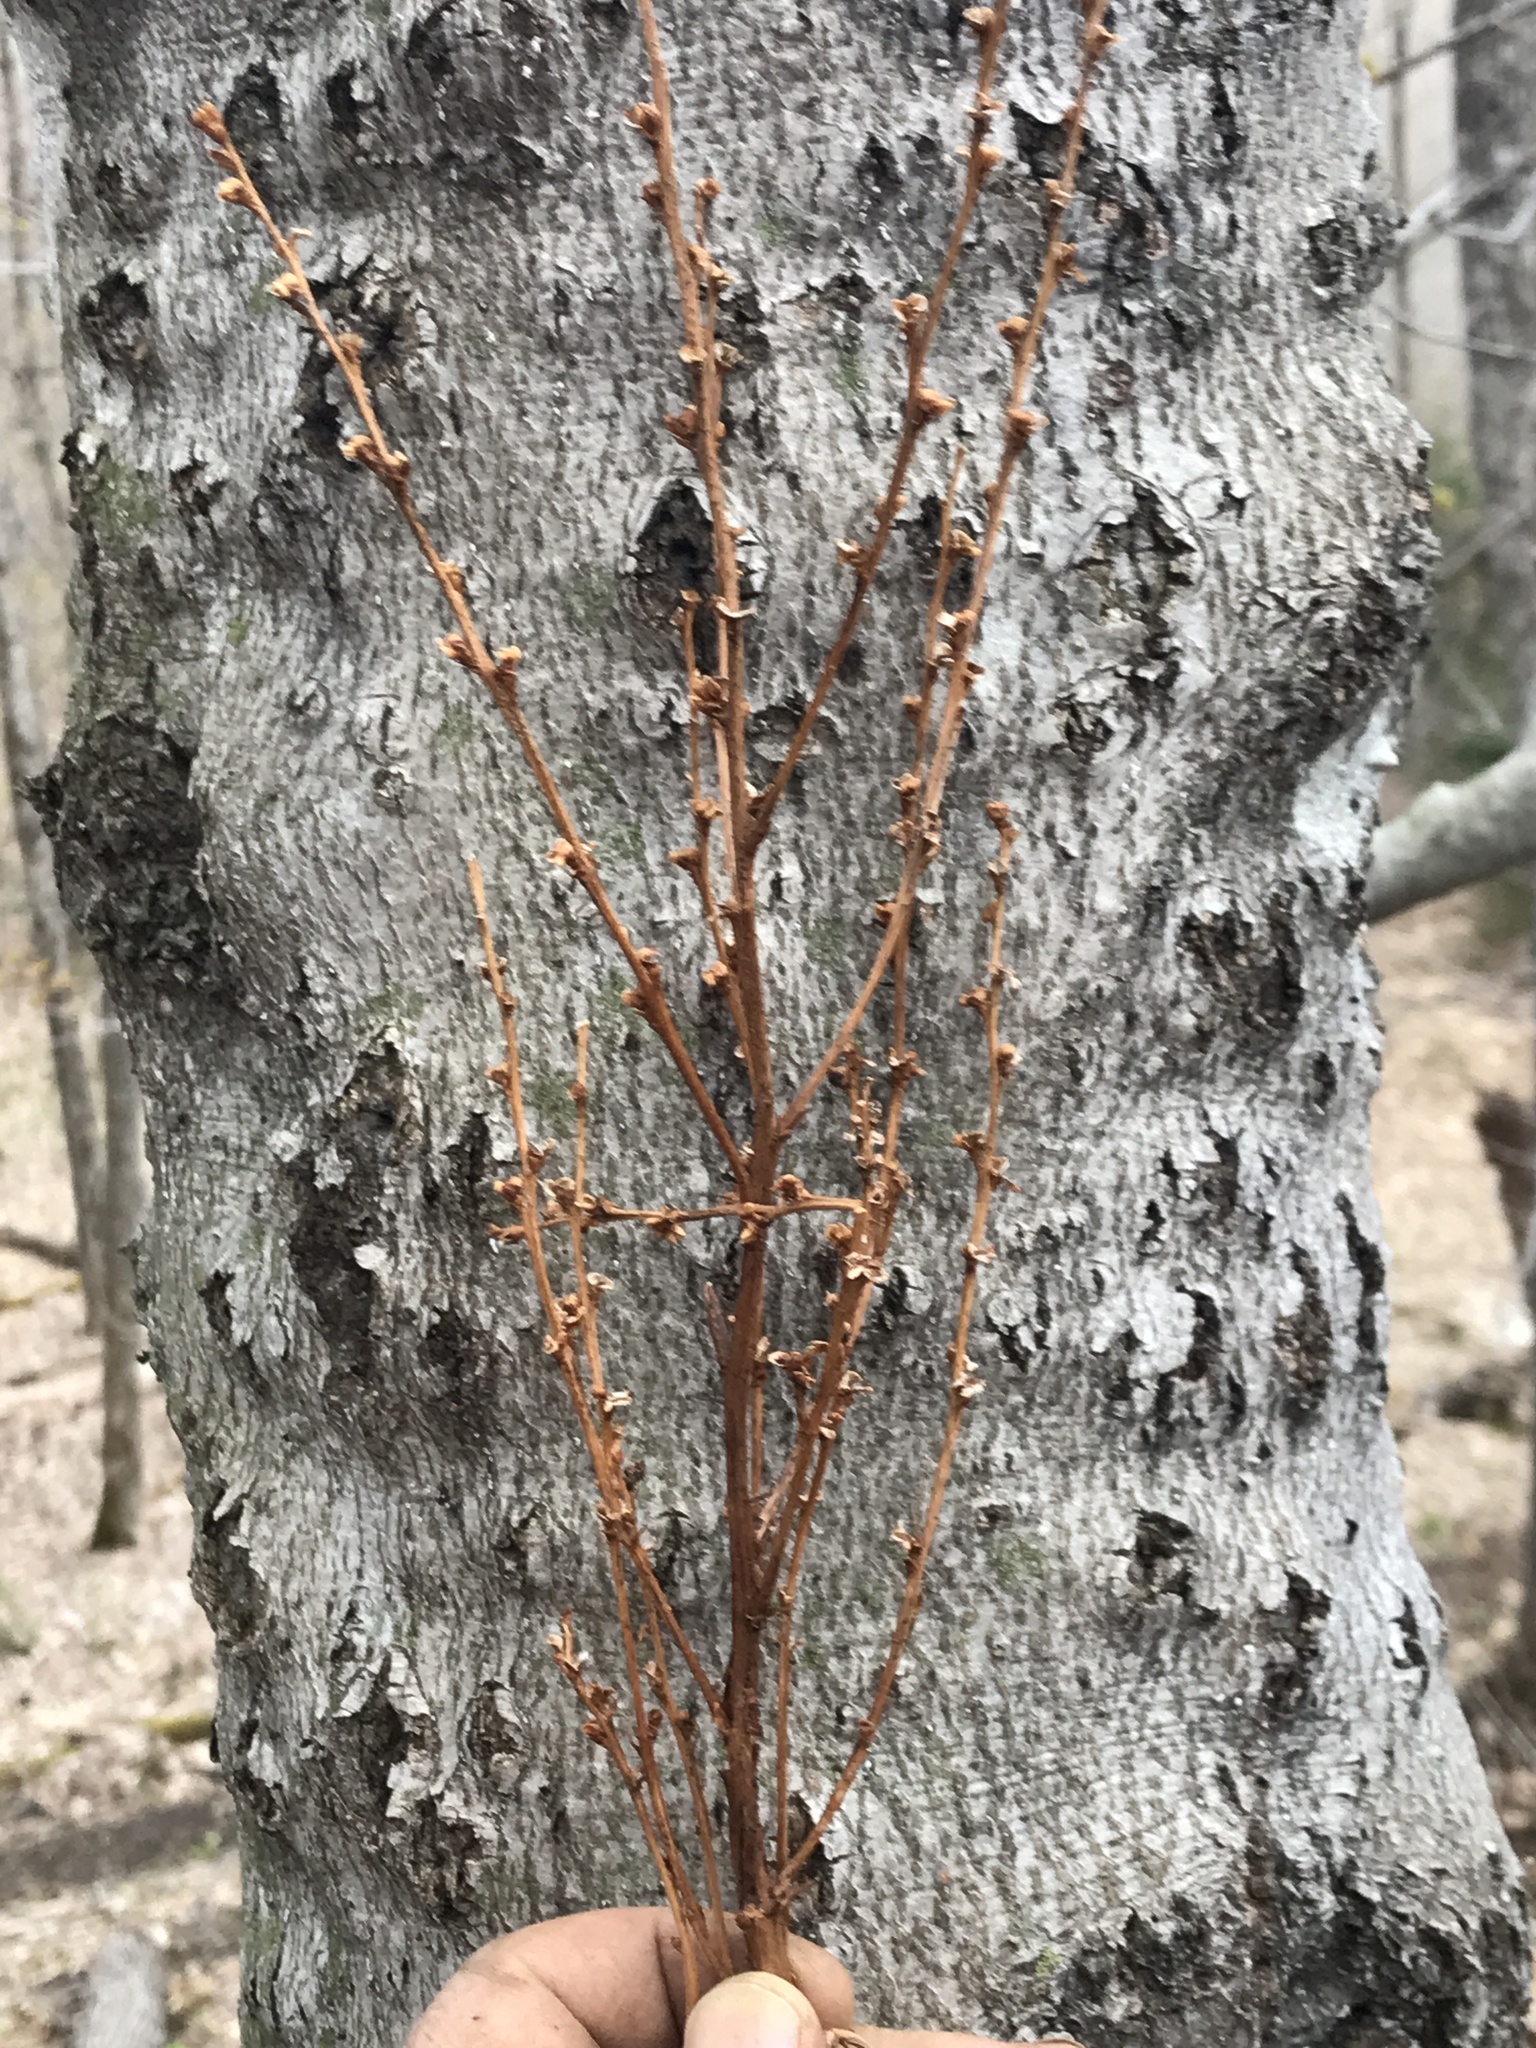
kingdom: Plantae
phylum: Tracheophyta
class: Magnoliopsida
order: Lamiales
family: Orobanchaceae
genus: Epifagus
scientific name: Epifagus virginiana
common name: Beechdrops
